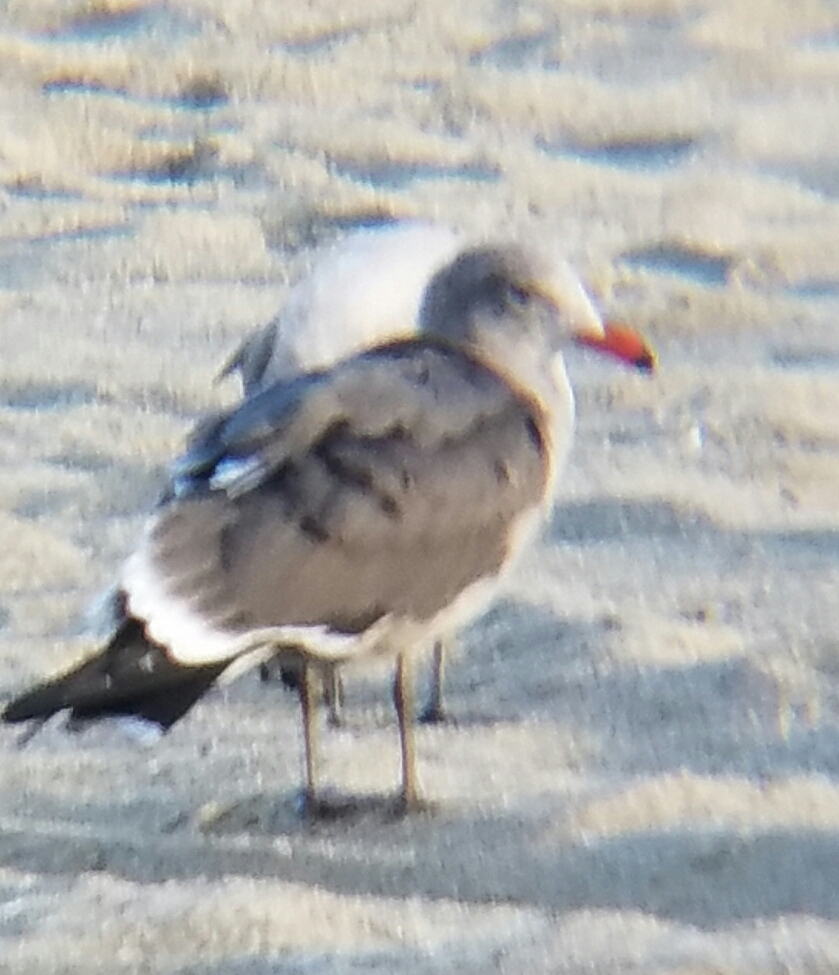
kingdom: Animalia
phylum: Chordata
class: Aves
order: Charadriiformes
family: Laridae
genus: Larus
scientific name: Larus heermanni
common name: Heermann's gull
